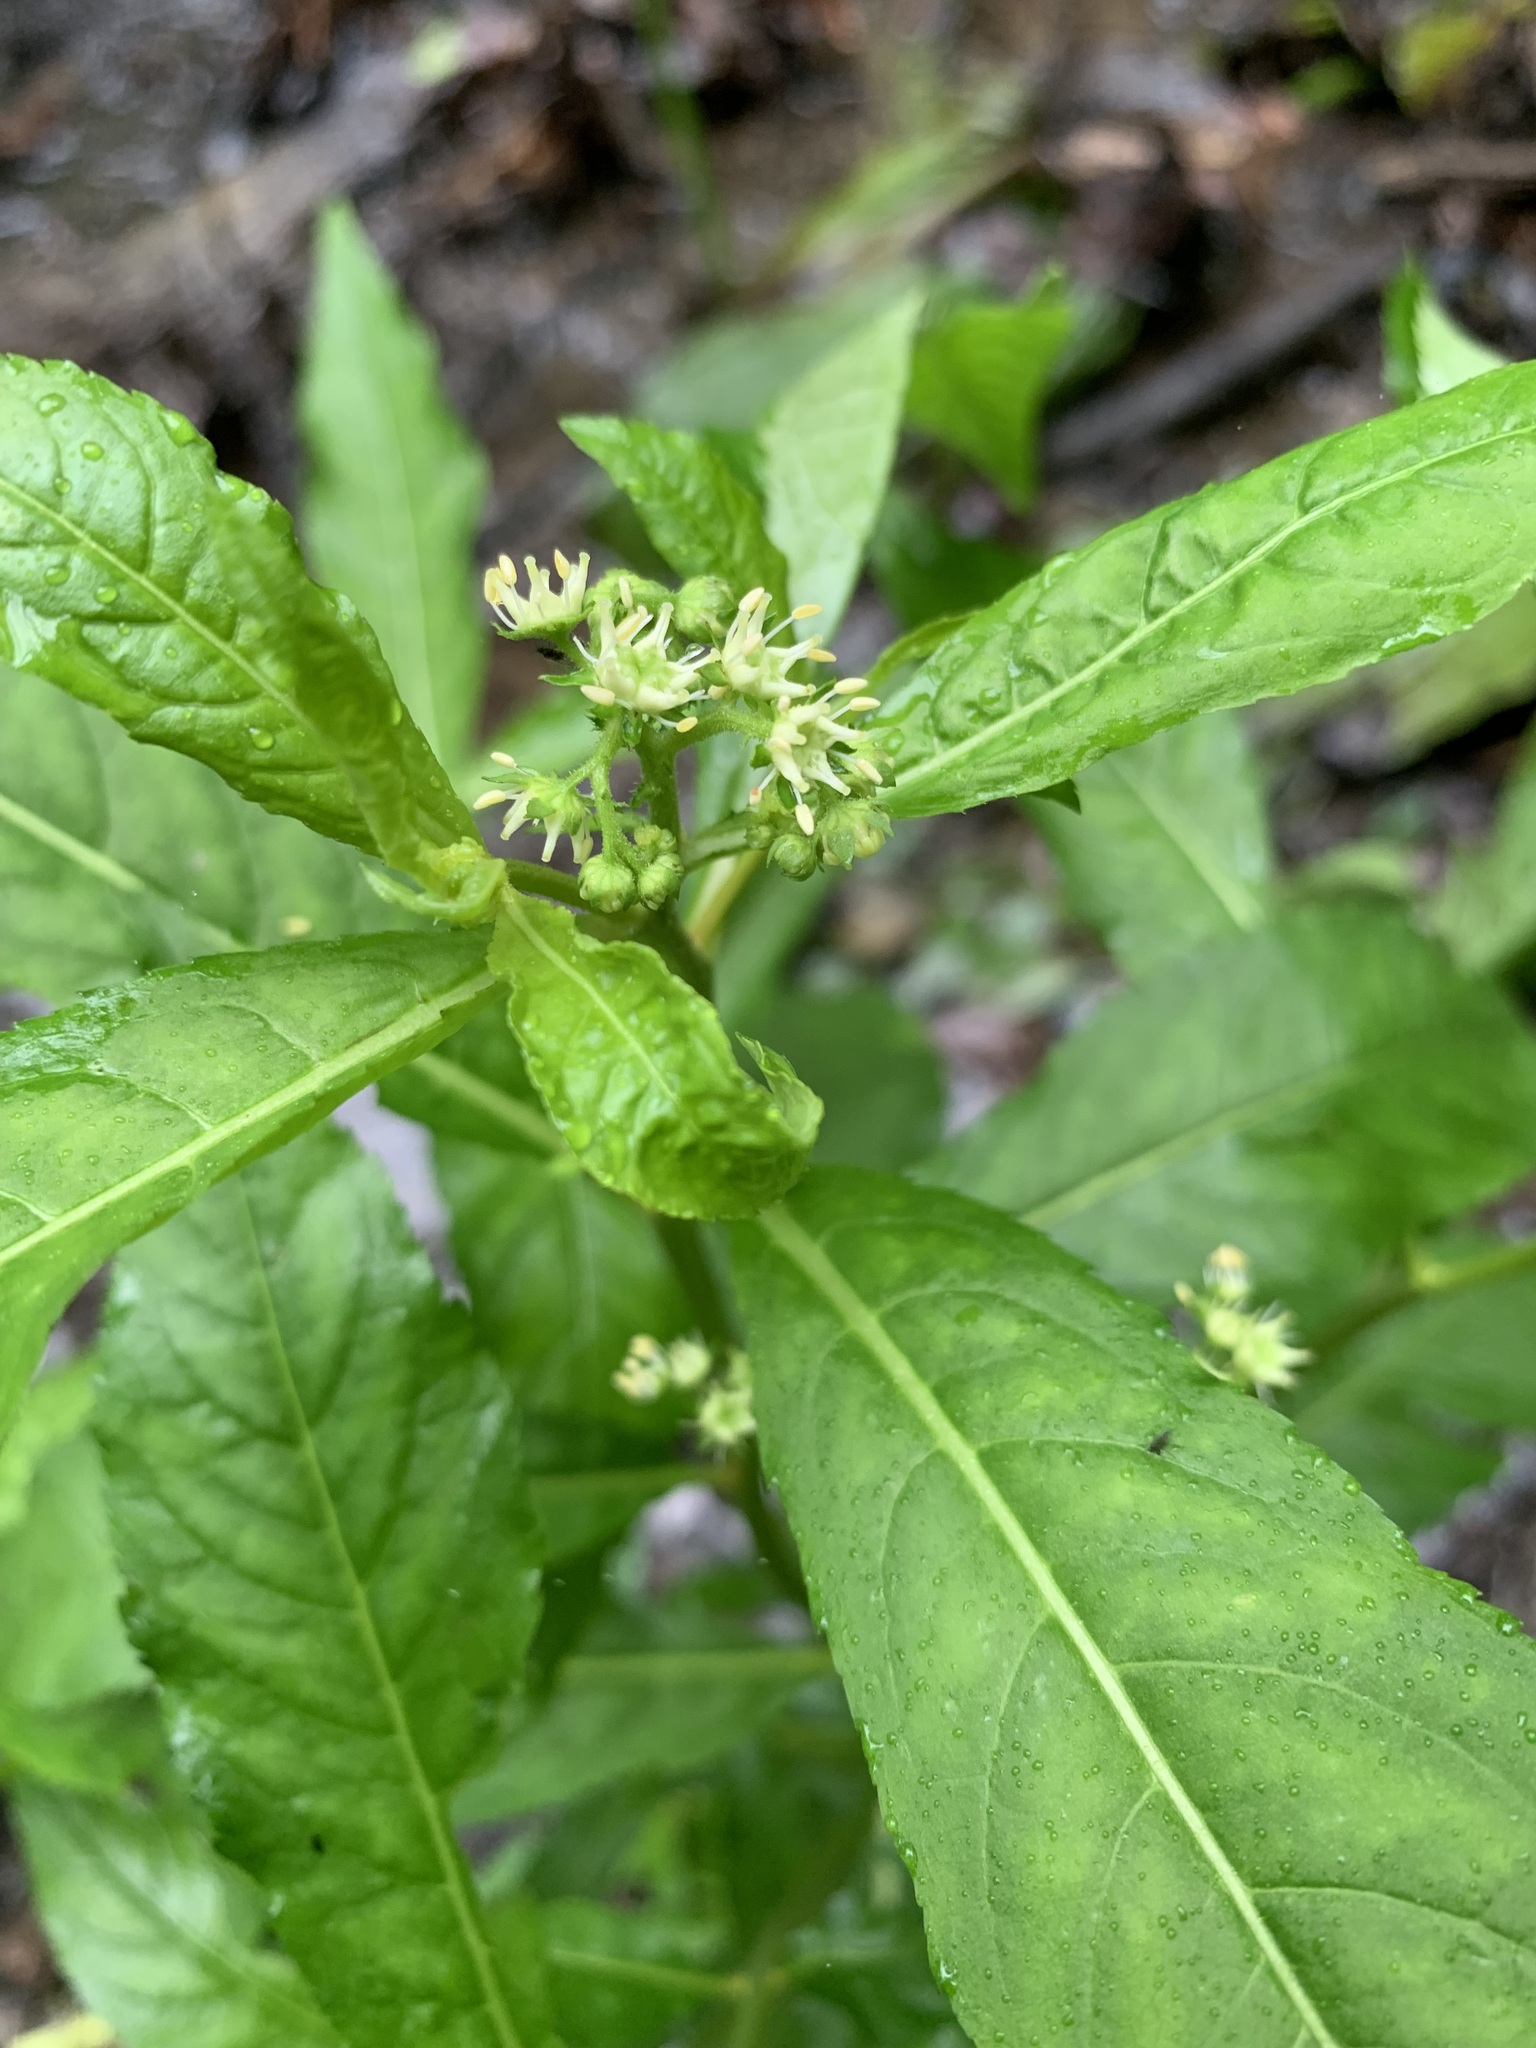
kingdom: Plantae
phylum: Tracheophyta
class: Magnoliopsida
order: Saxifragales
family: Penthoraceae
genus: Penthorum
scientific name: Penthorum sedoides
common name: Ditch stonecrop
